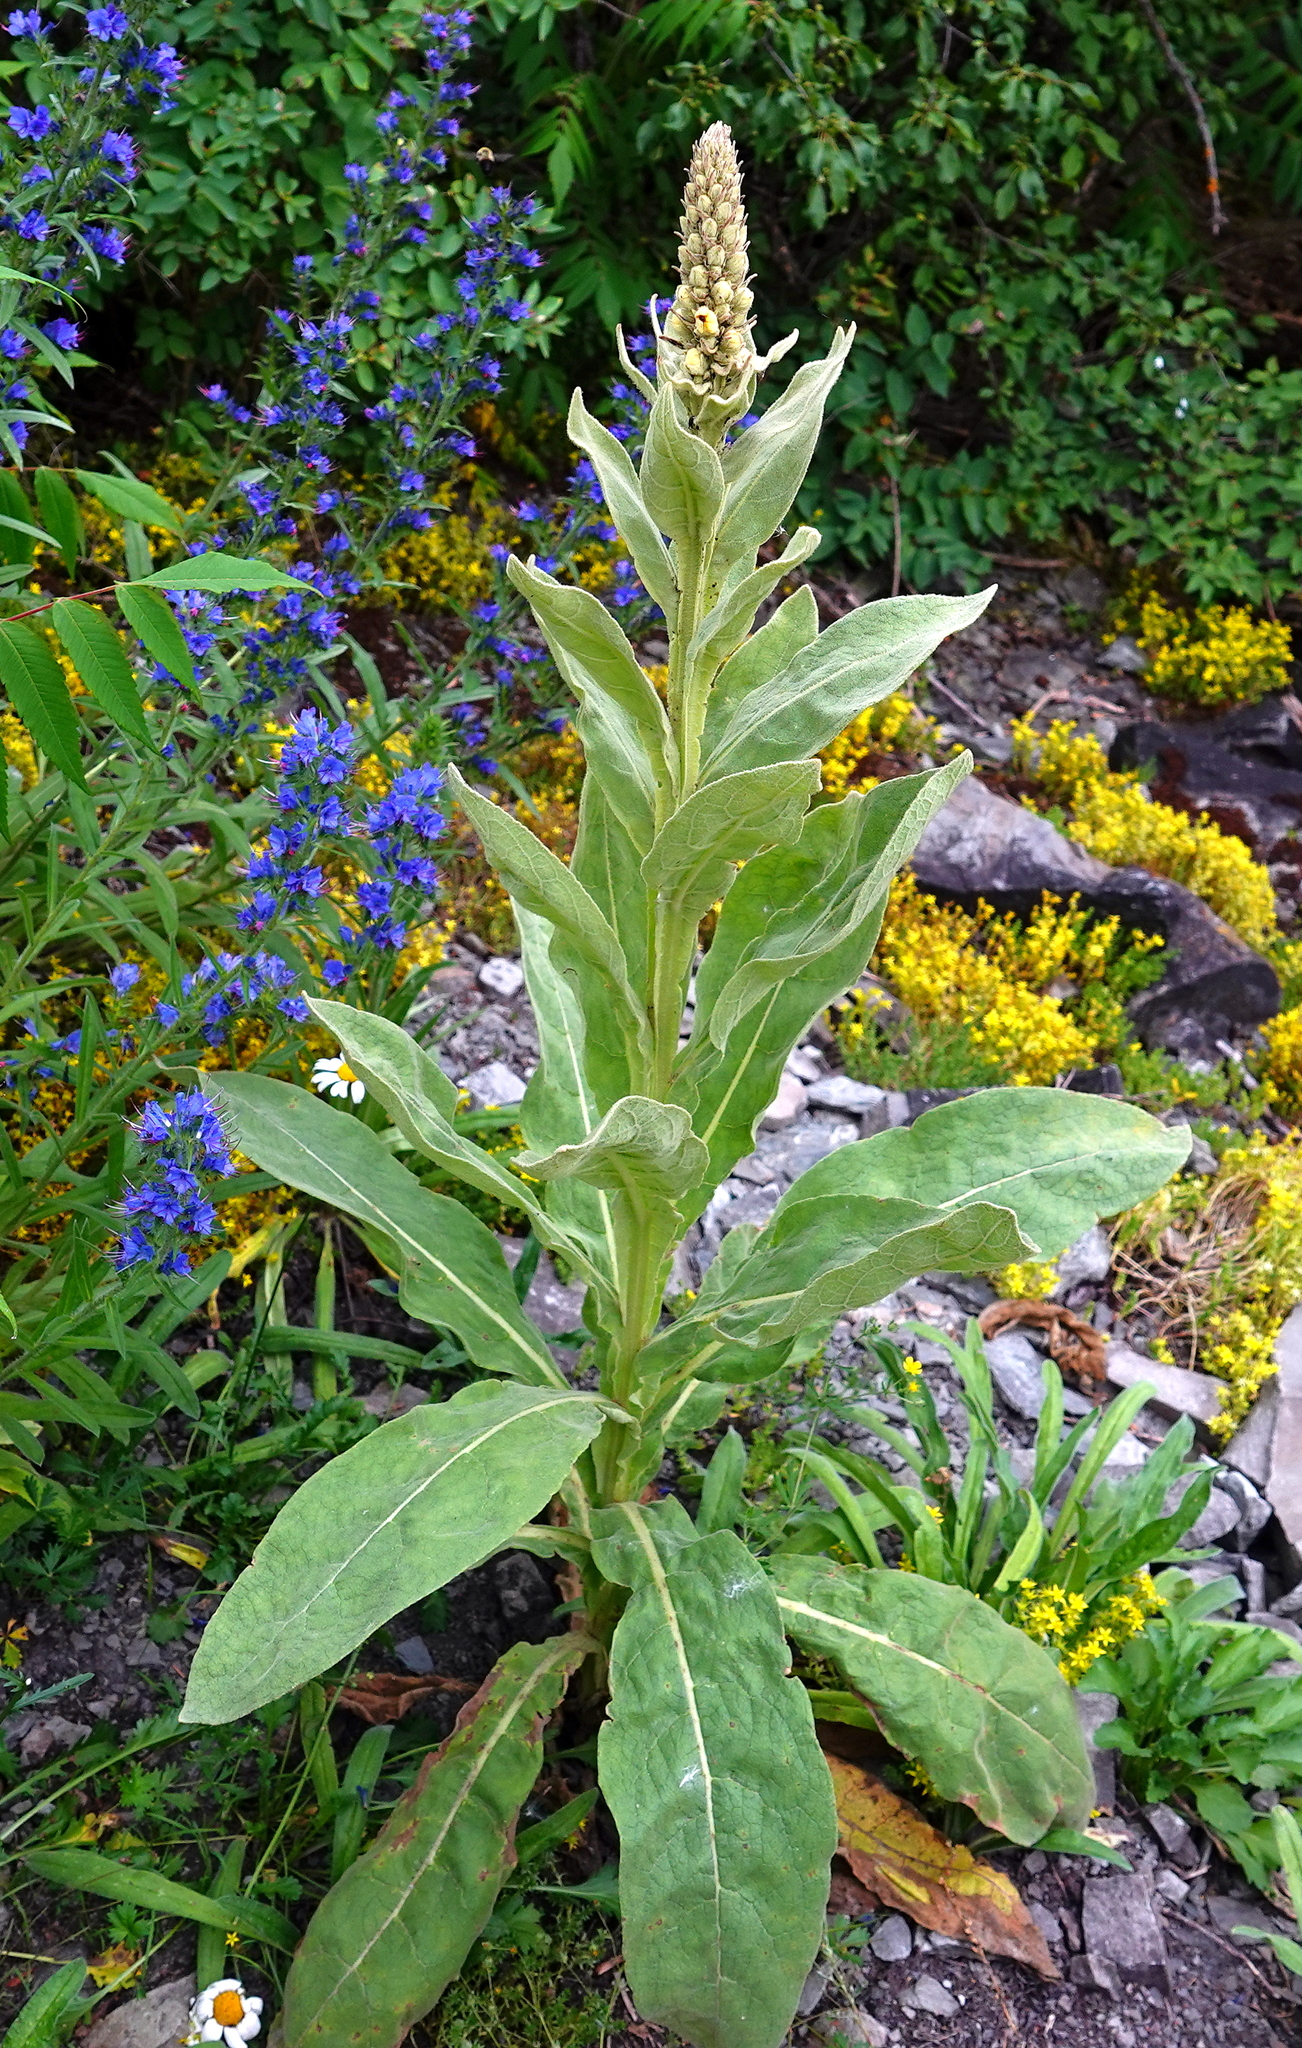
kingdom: Plantae
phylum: Tracheophyta
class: Magnoliopsida
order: Lamiales
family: Scrophulariaceae
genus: Verbascum
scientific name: Verbascum thapsus
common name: Common mullein
